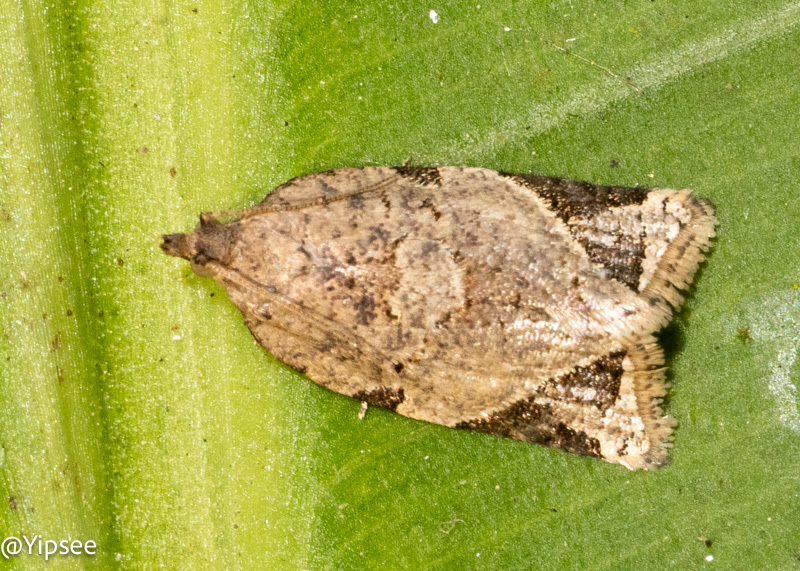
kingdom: Animalia
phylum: Arthropoda
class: Insecta
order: Lepidoptera
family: Tortricidae
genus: Neocalyptis
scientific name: Neocalyptis affinisana
